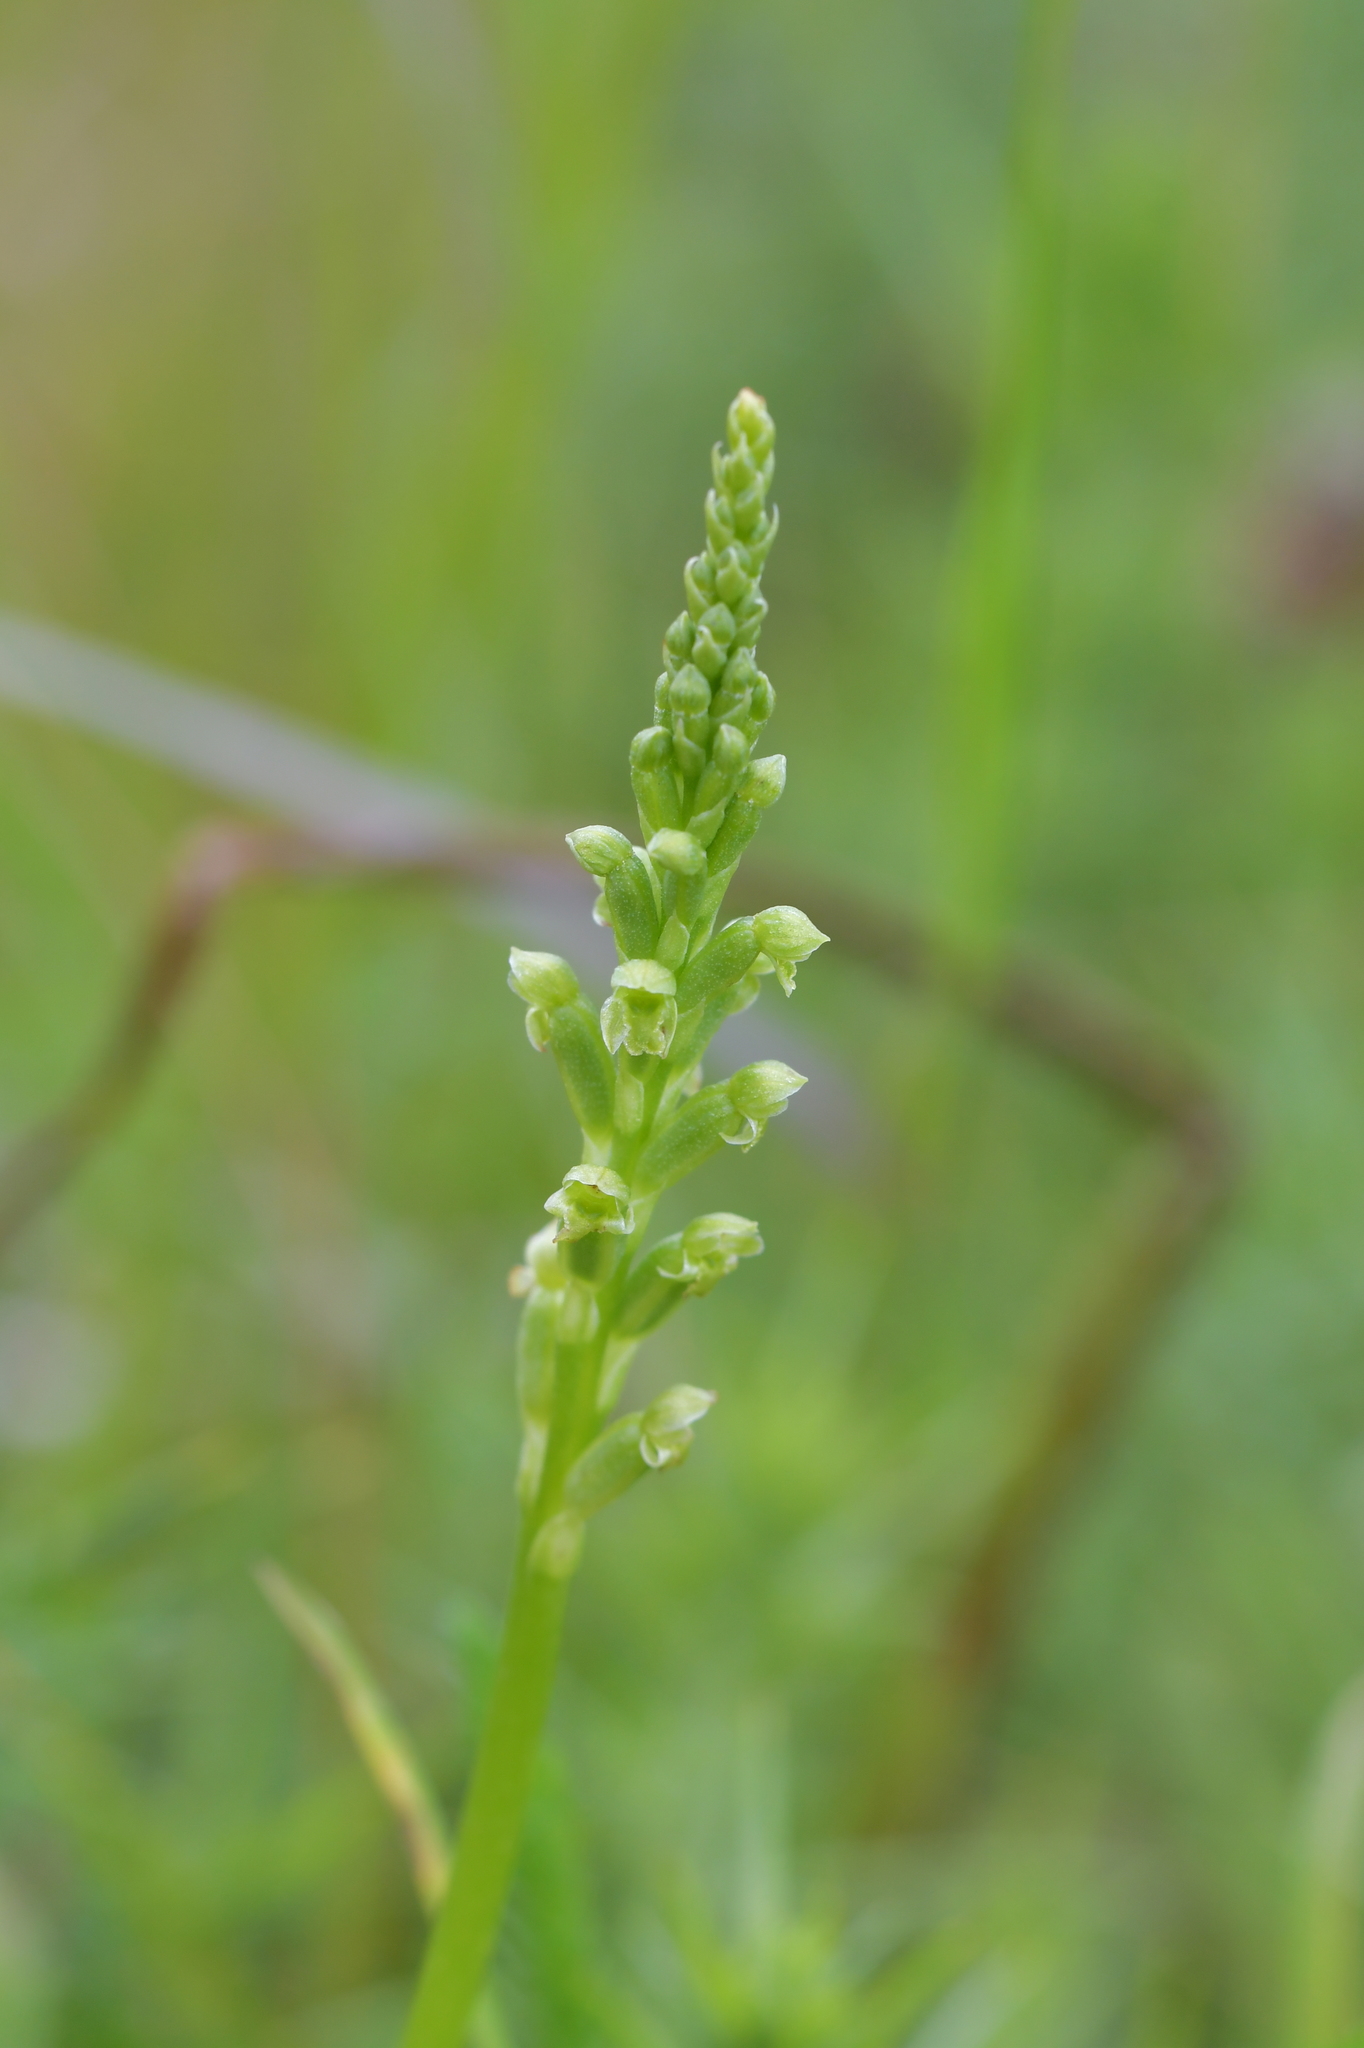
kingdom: Plantae
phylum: Tracheophyta
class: Liliopsida
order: Asparagales
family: Orchidaceae
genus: Microtis
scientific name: Microtis unifolia
